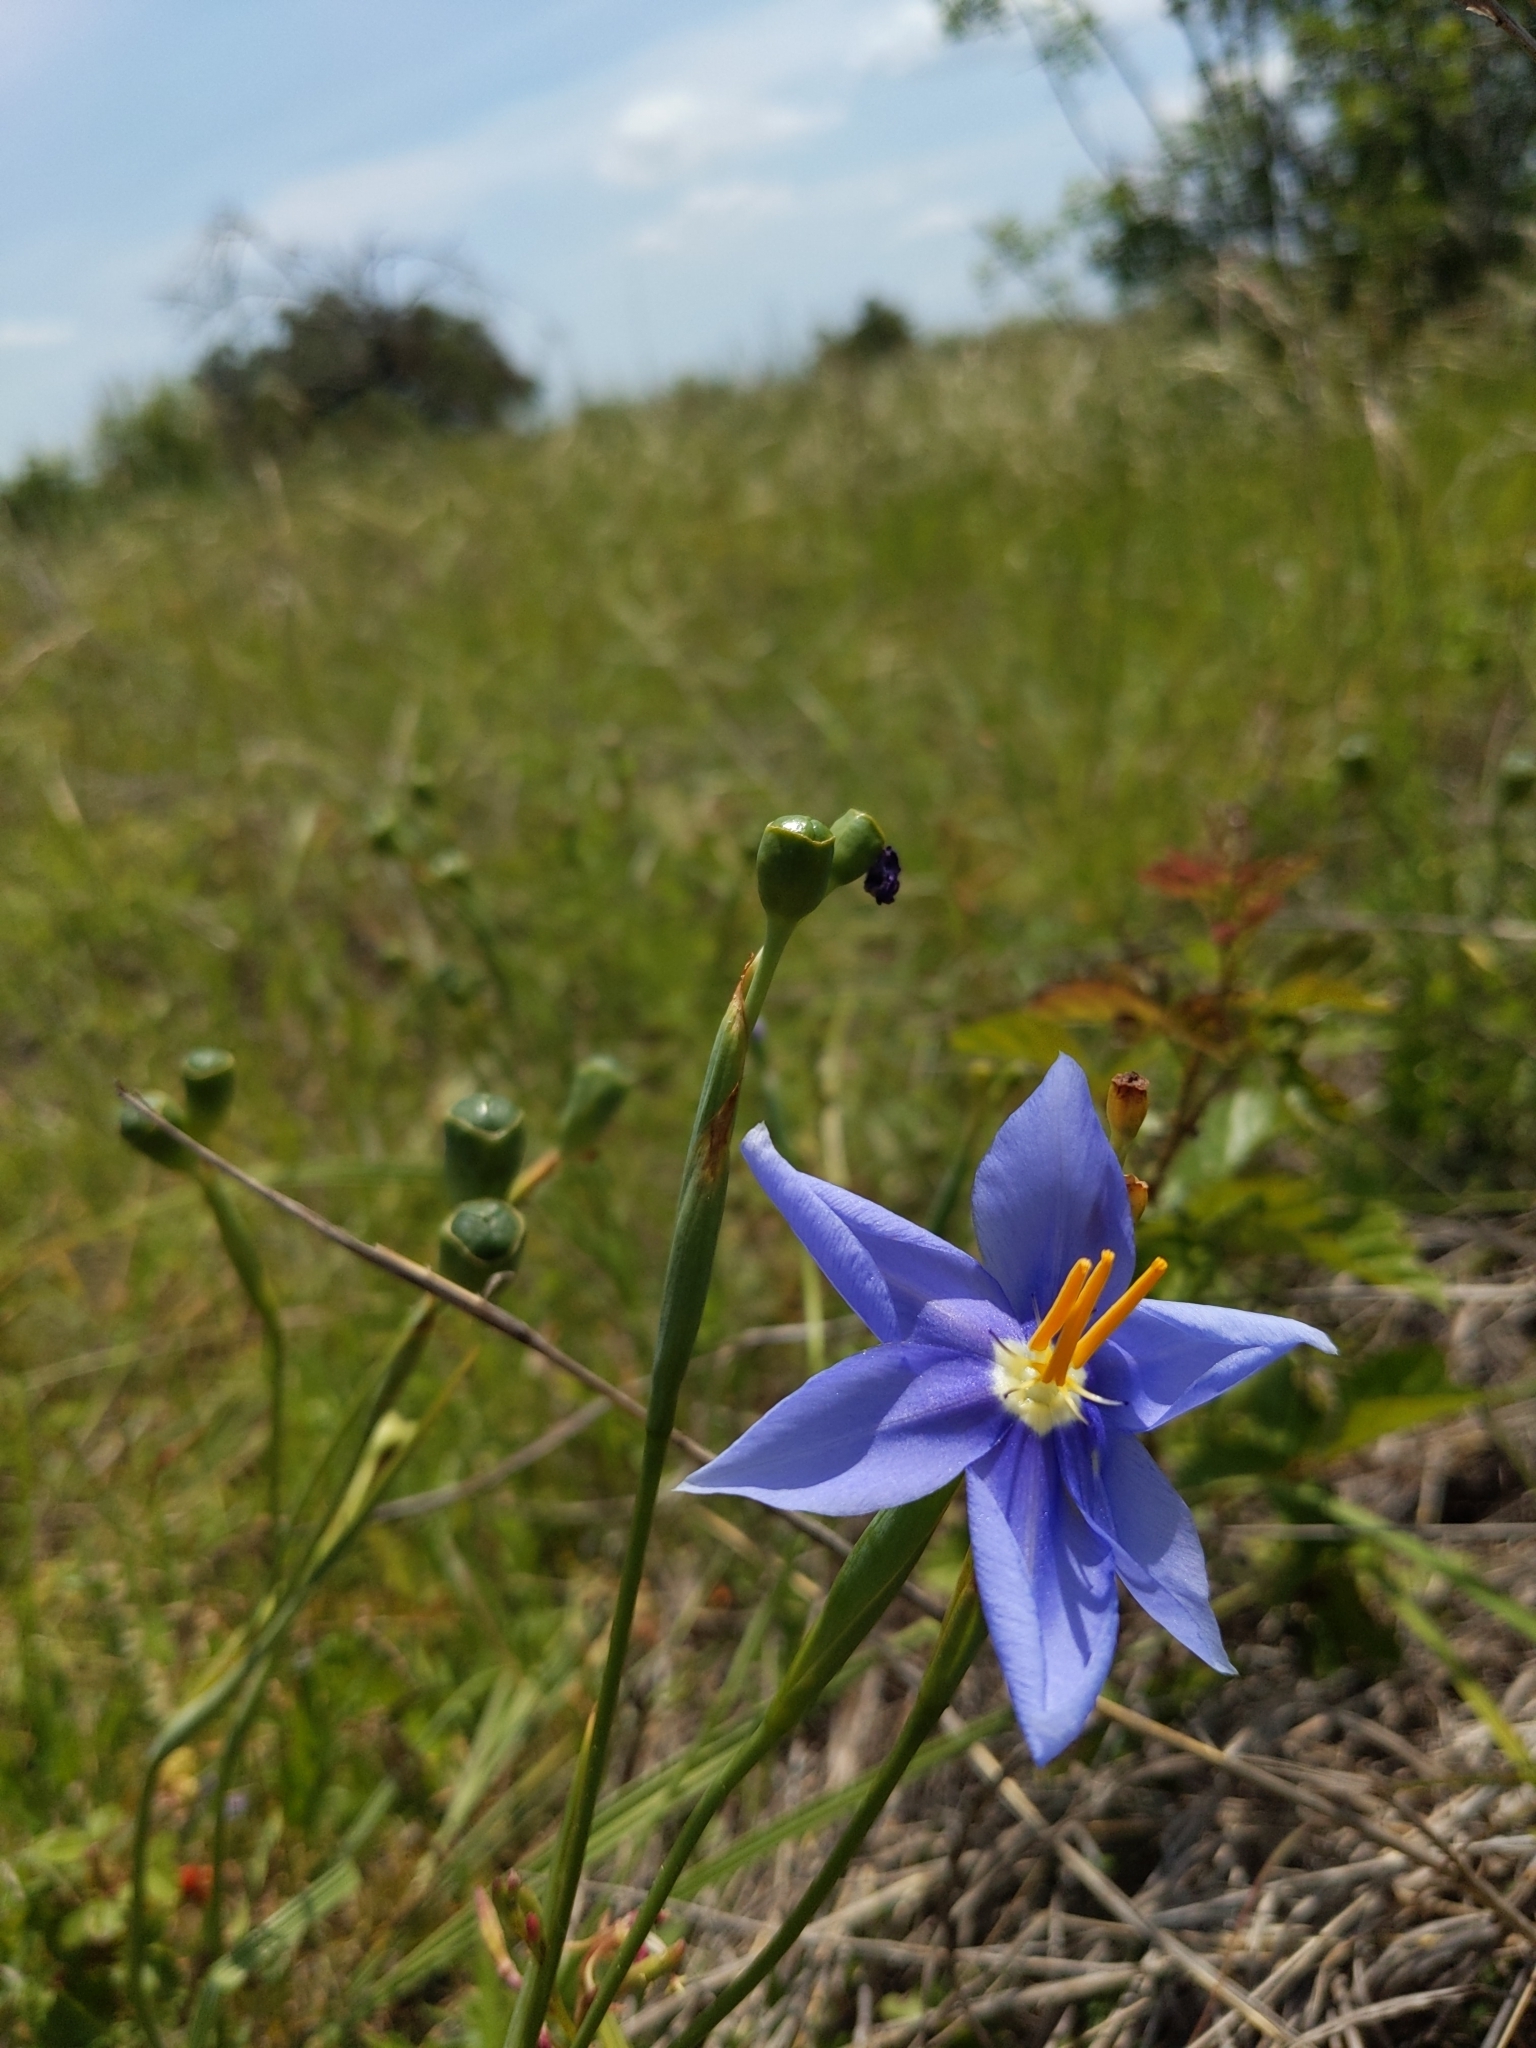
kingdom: Plantae
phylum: Tracheophyta
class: Liliopsida
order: Asparagales
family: Iridaceae
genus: Nemastylis
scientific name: Nemastylis geminiflora
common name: Prairie celestial
